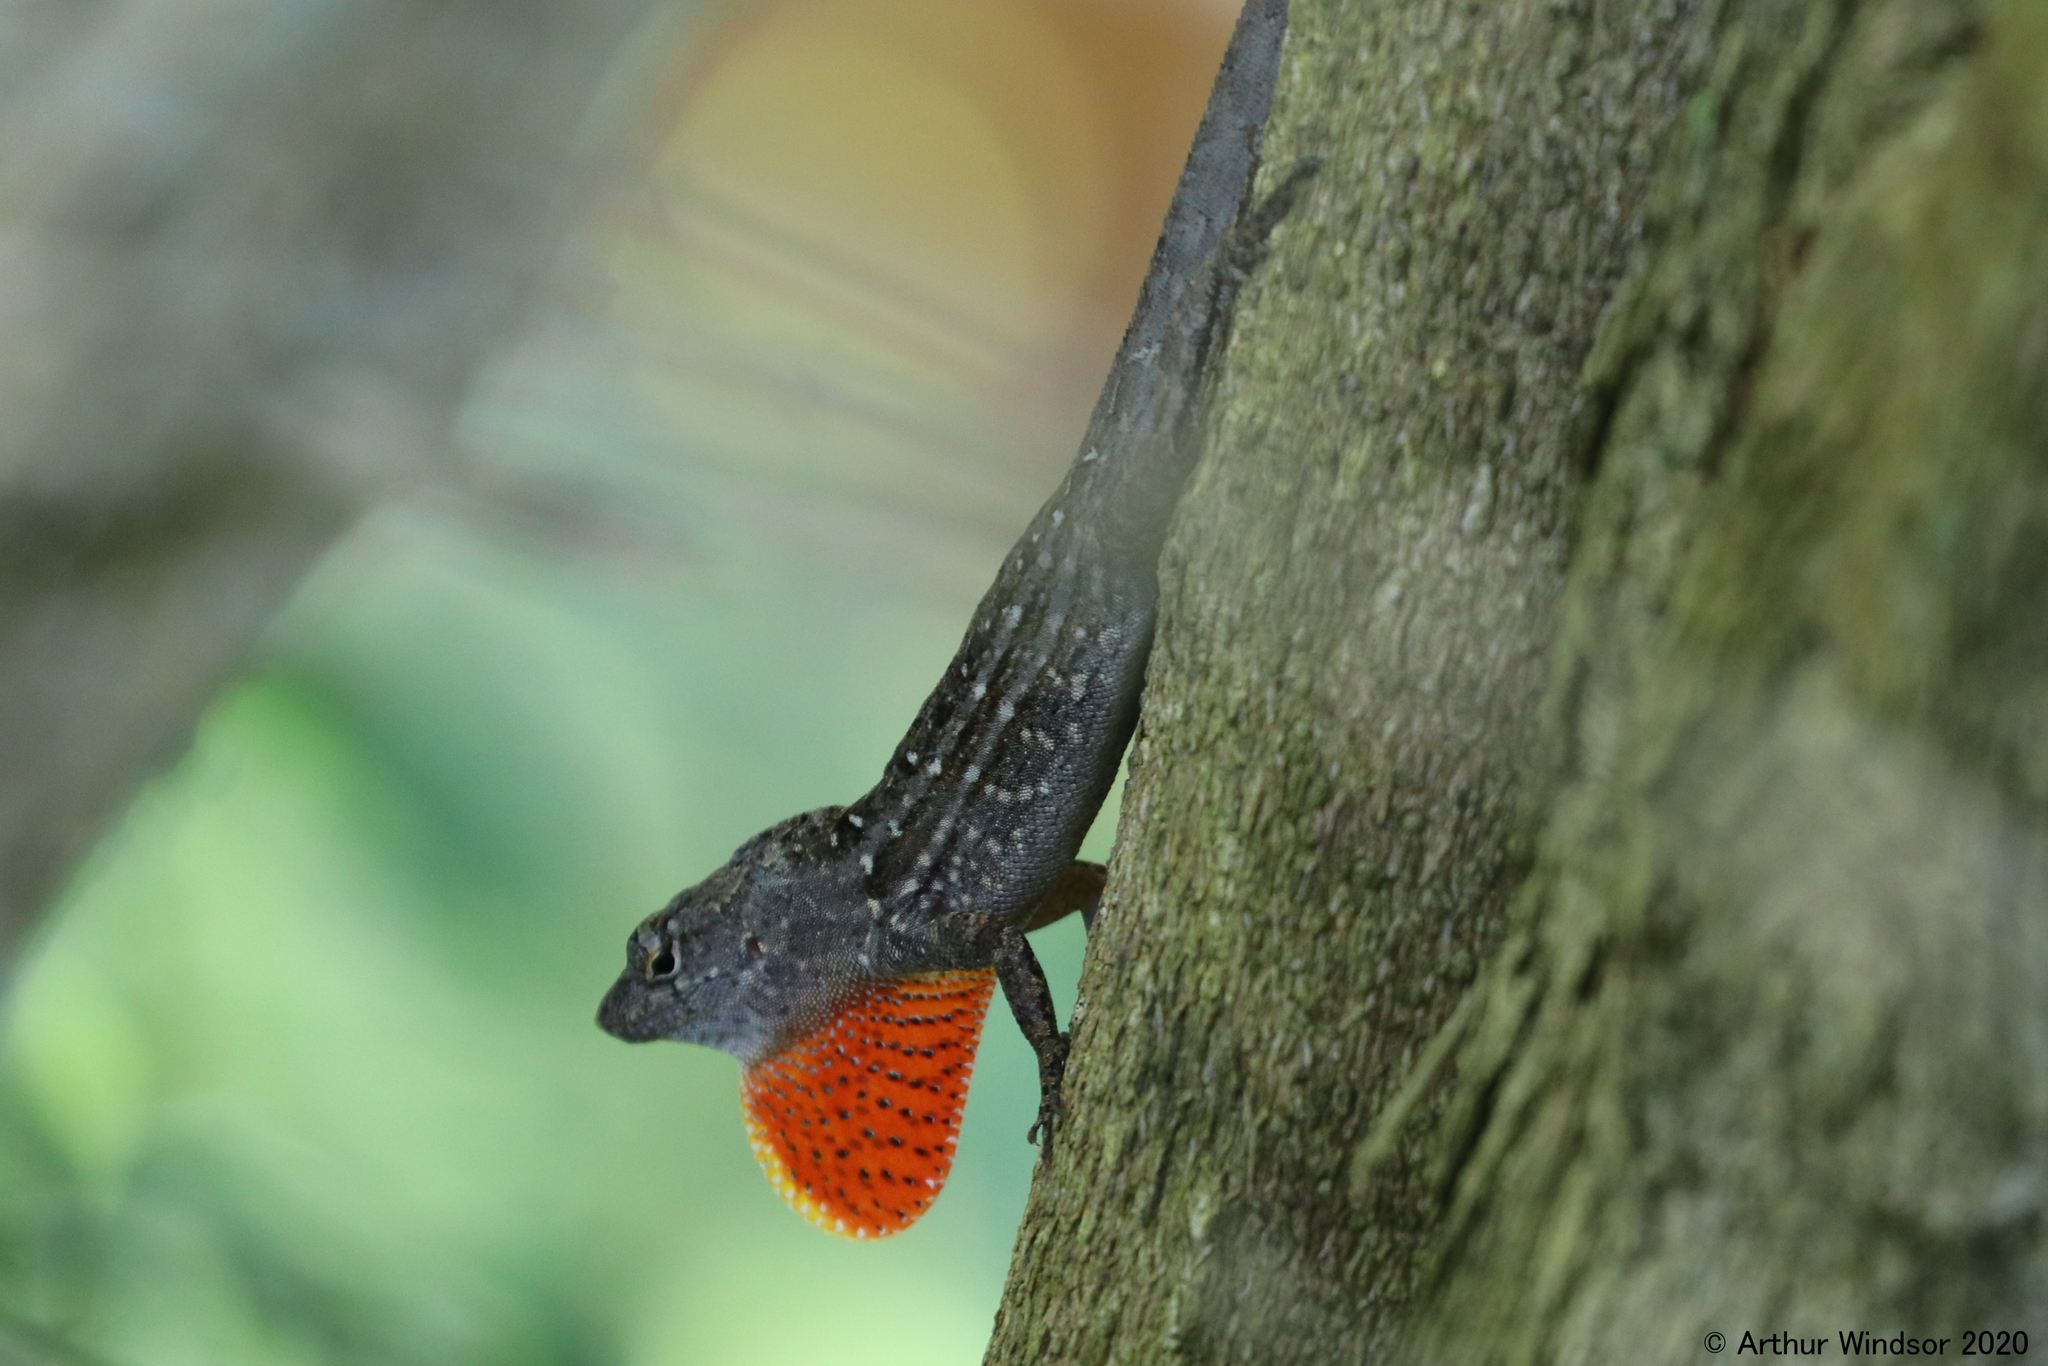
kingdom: Animalia
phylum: Chordata
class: Squamata
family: Dactyloidae
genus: Anolis
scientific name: Anolis sagrei
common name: Brown anole
